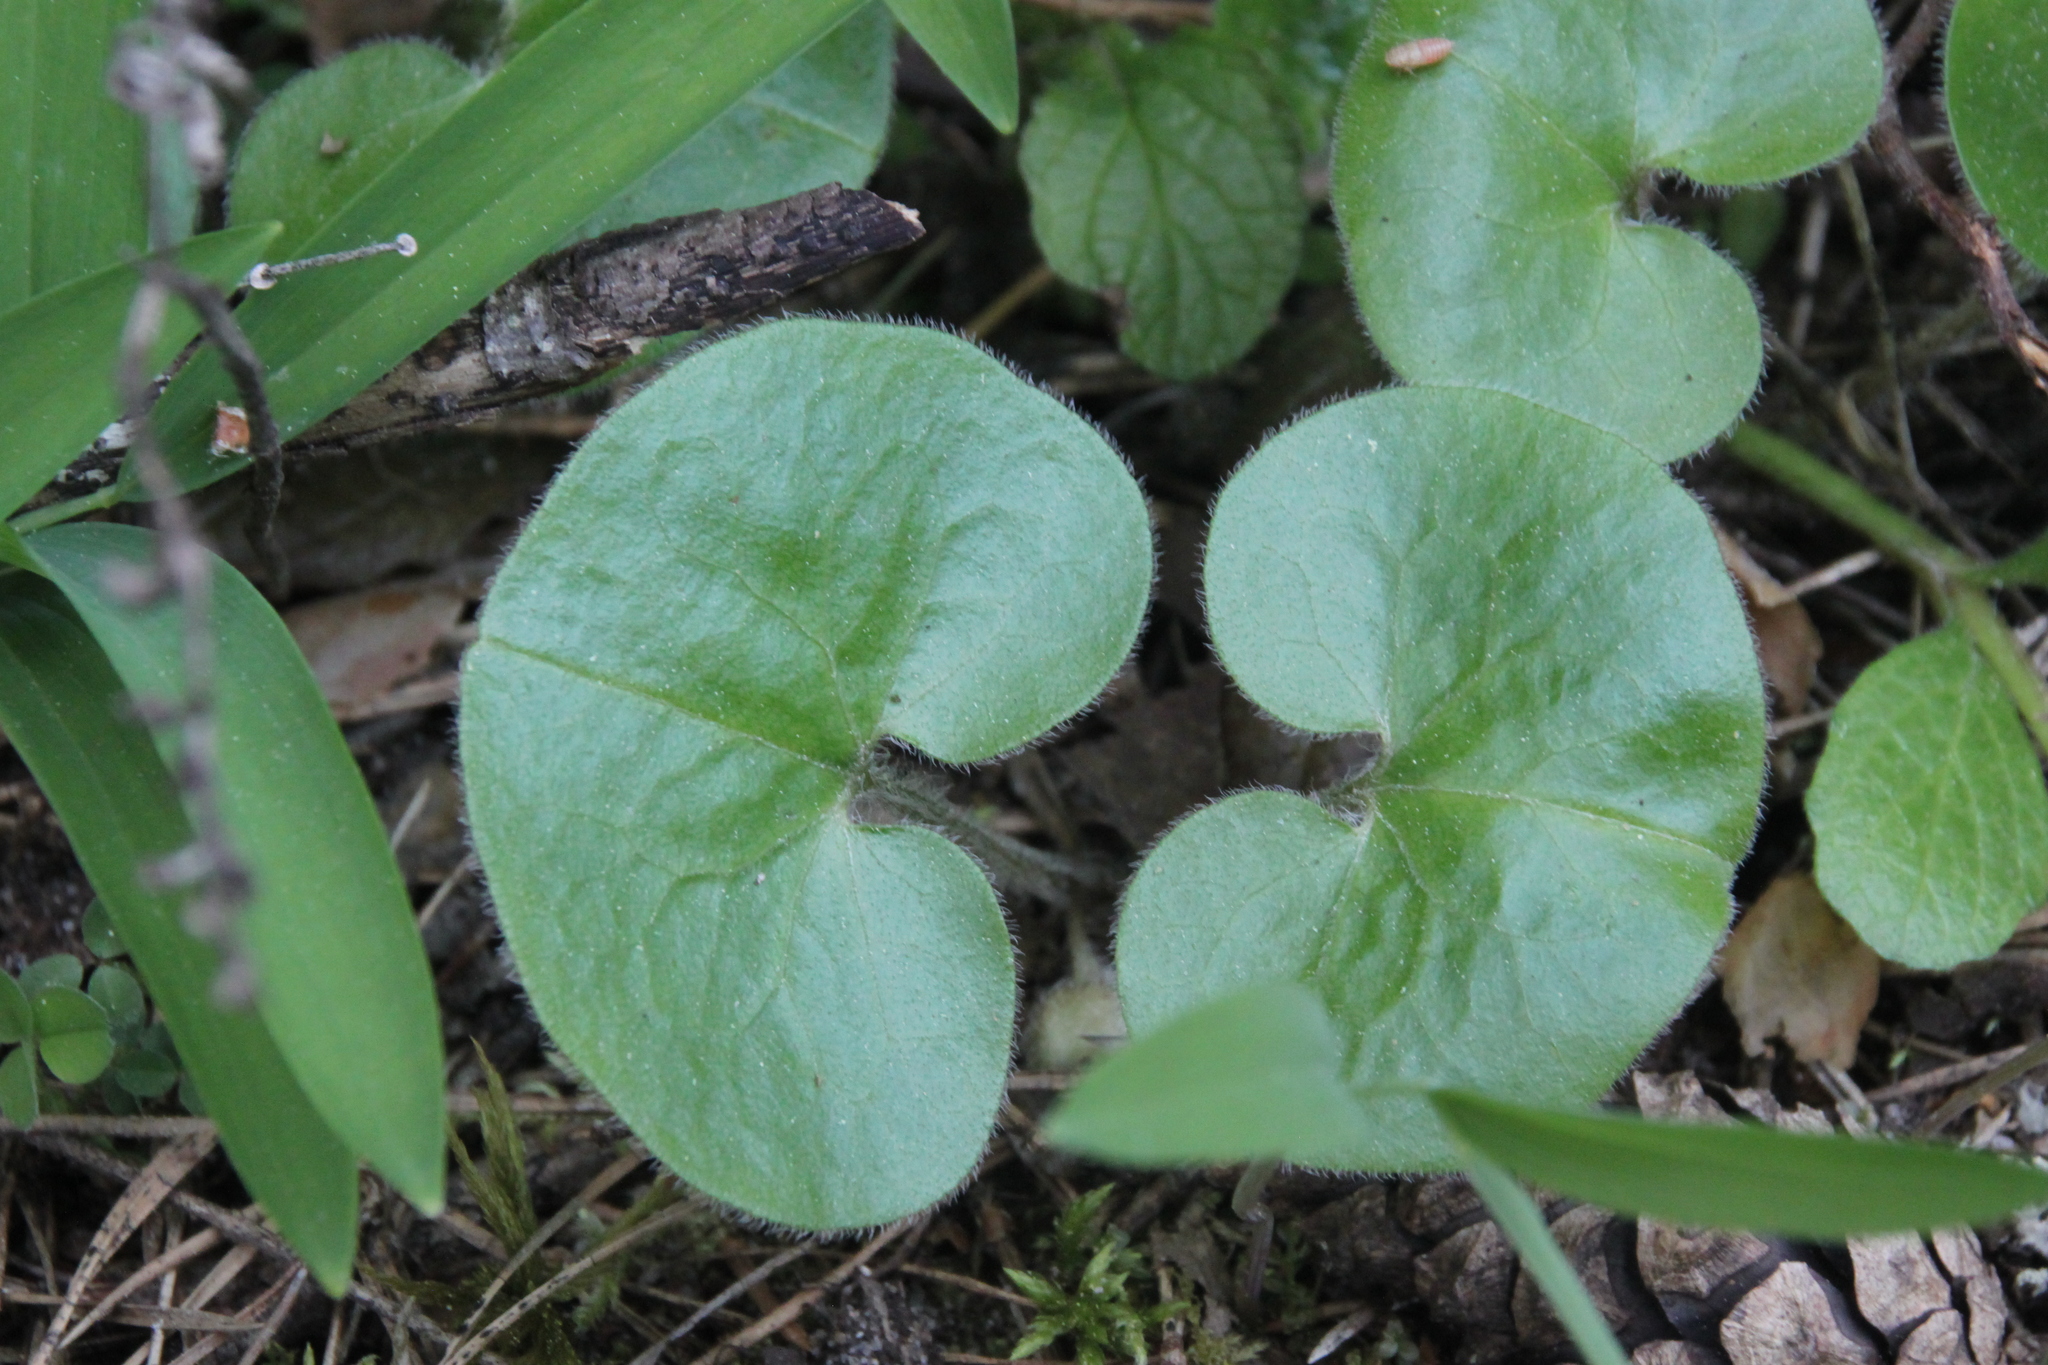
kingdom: Plantae
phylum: Tracheophyta
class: Magnoliopsida
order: Piperales
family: Aristolochiaceae
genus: Asarum
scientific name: Asarum europaeum
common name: Asarabacca
